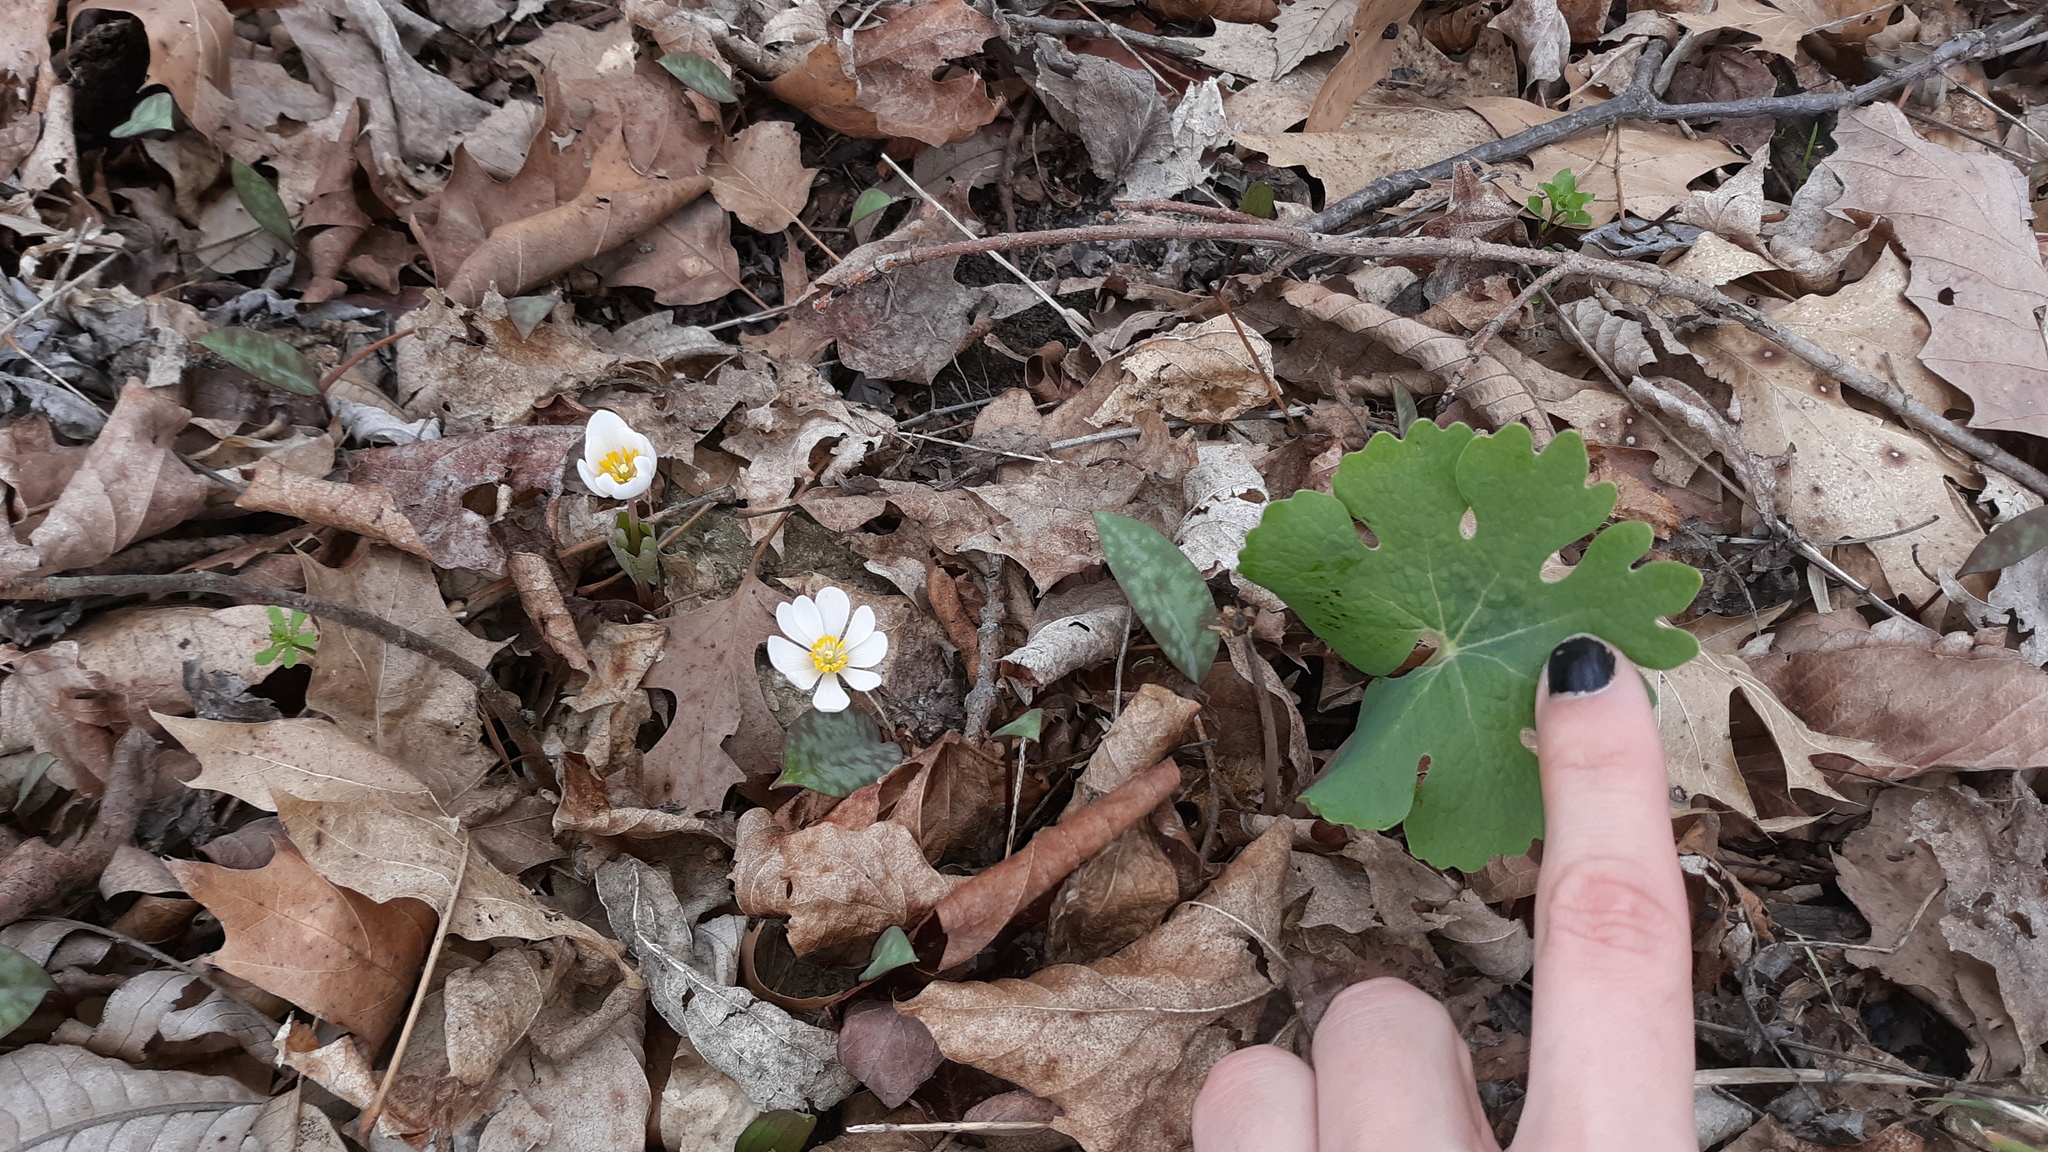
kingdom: Plantae
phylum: Tracheophyta
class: Magnoliopsida
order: Ranunculales
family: Papaveraceae
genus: Sanguinaria
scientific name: Sanguinaria canadensis
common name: Bloodroot
